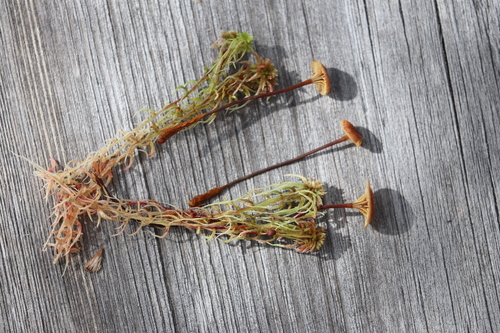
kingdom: Fungi
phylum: Basidiomycota
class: Agaricomycetes
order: Agaricales
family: Mycenaceae
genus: Xeromphalina
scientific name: Xeromphalina cornui
